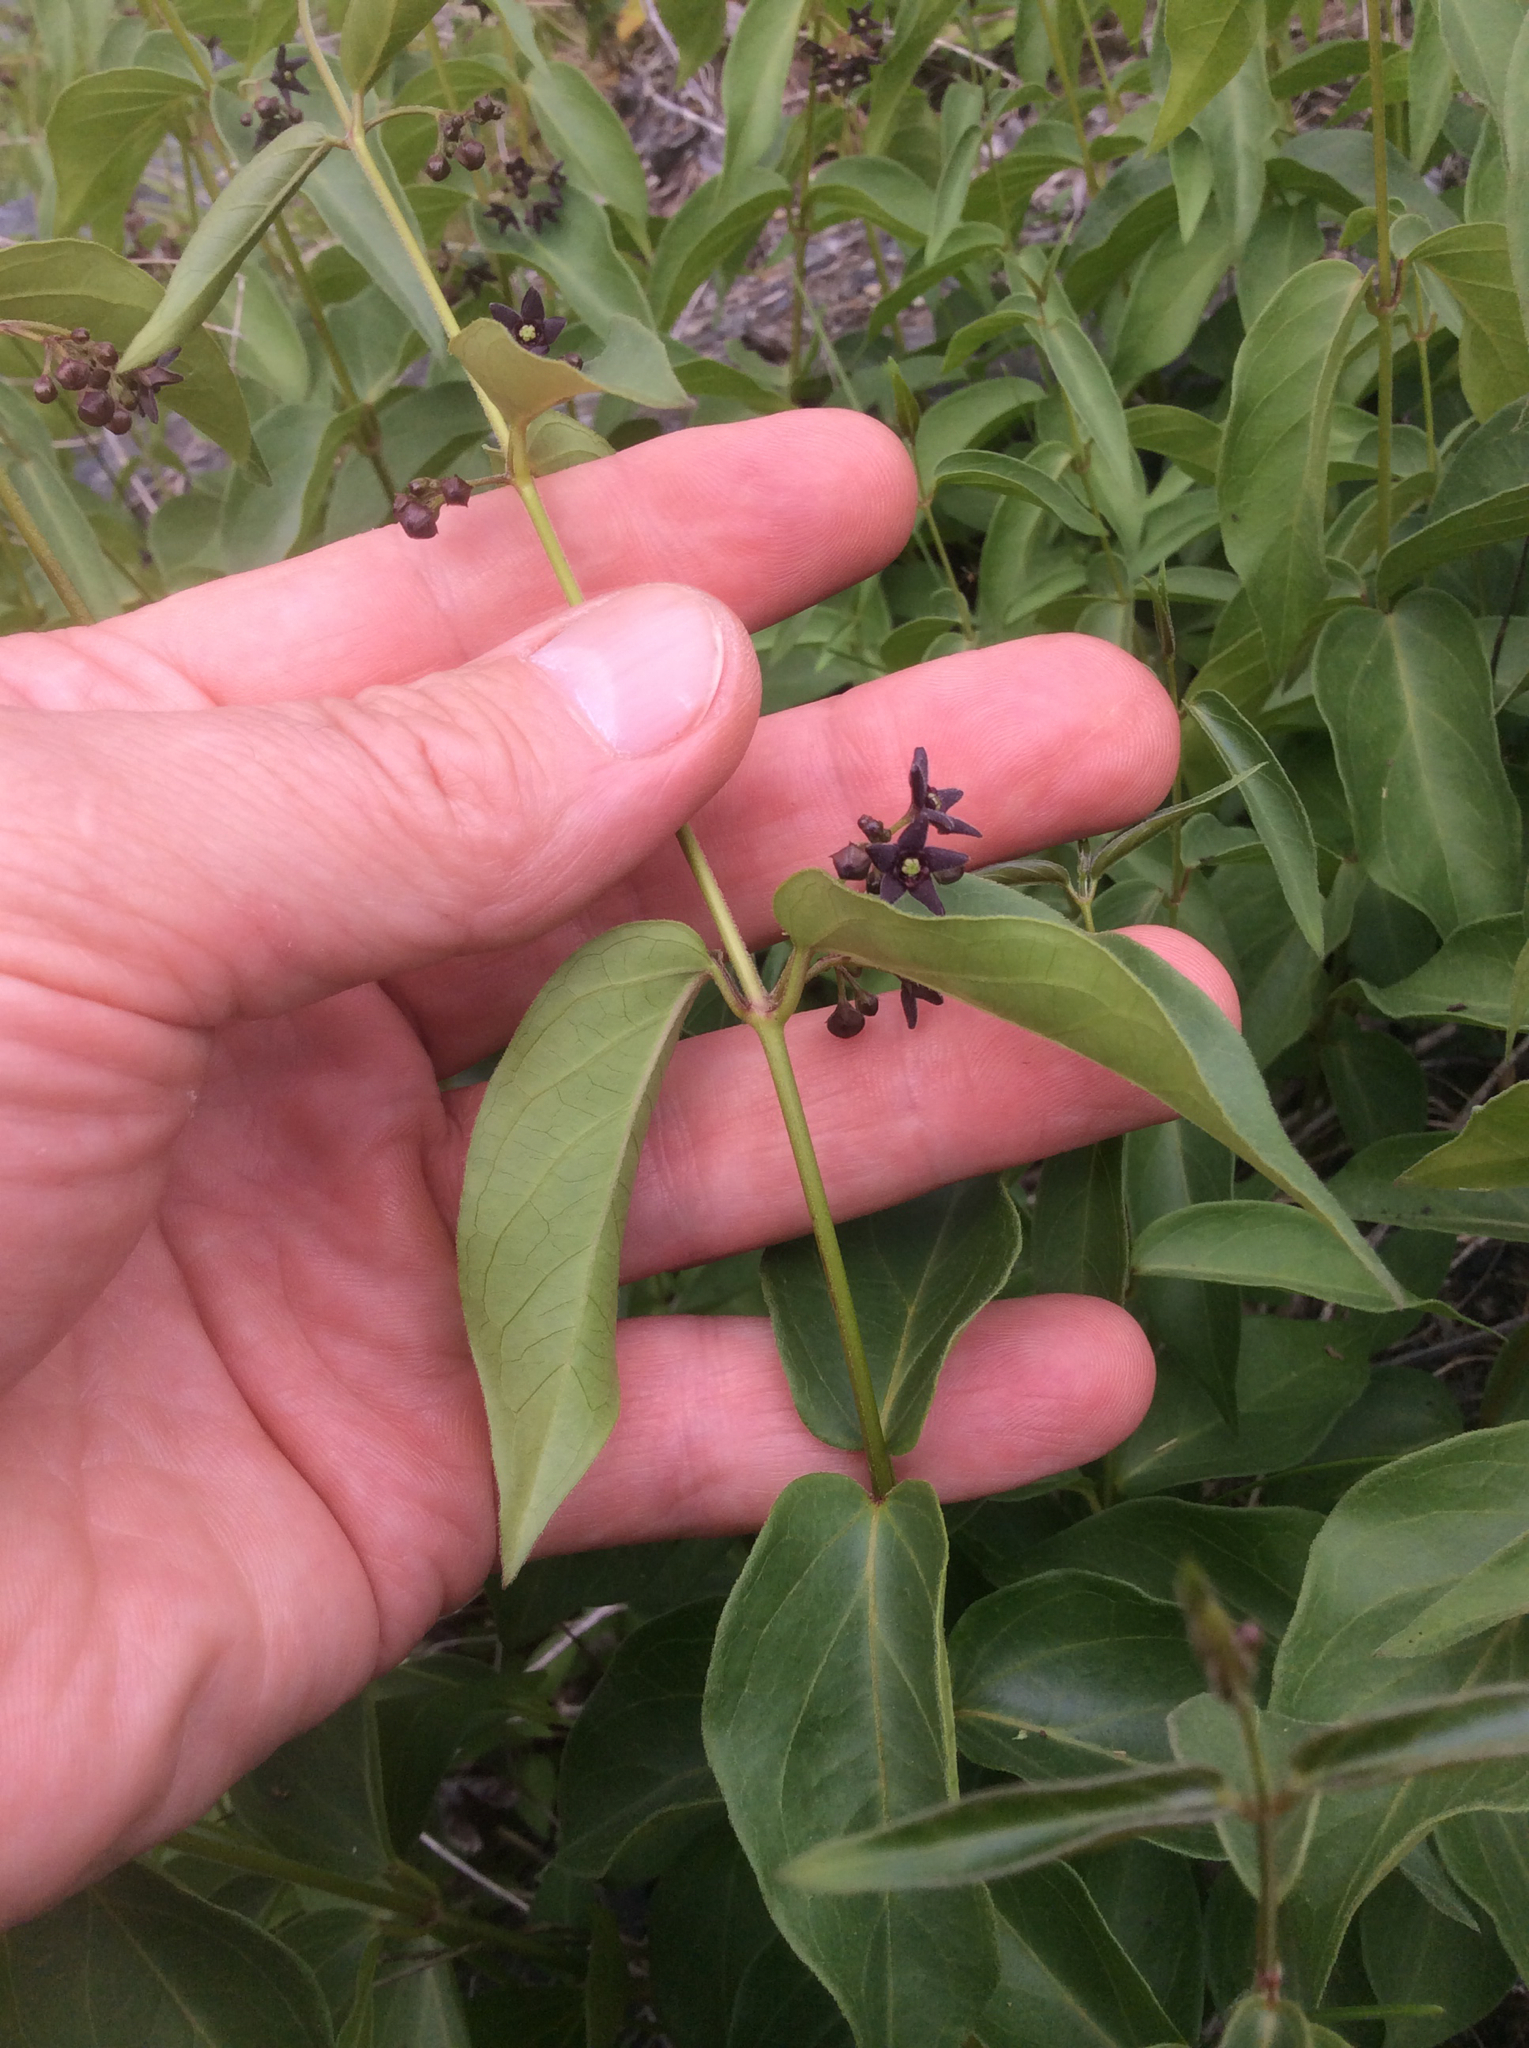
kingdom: Plantae
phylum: Tracheophyta
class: Magnoliopsida
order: Gentianales
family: Apocynaceae
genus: Vincetoxicum
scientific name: Vincetoxicum nigrum
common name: Black swallow-wort
